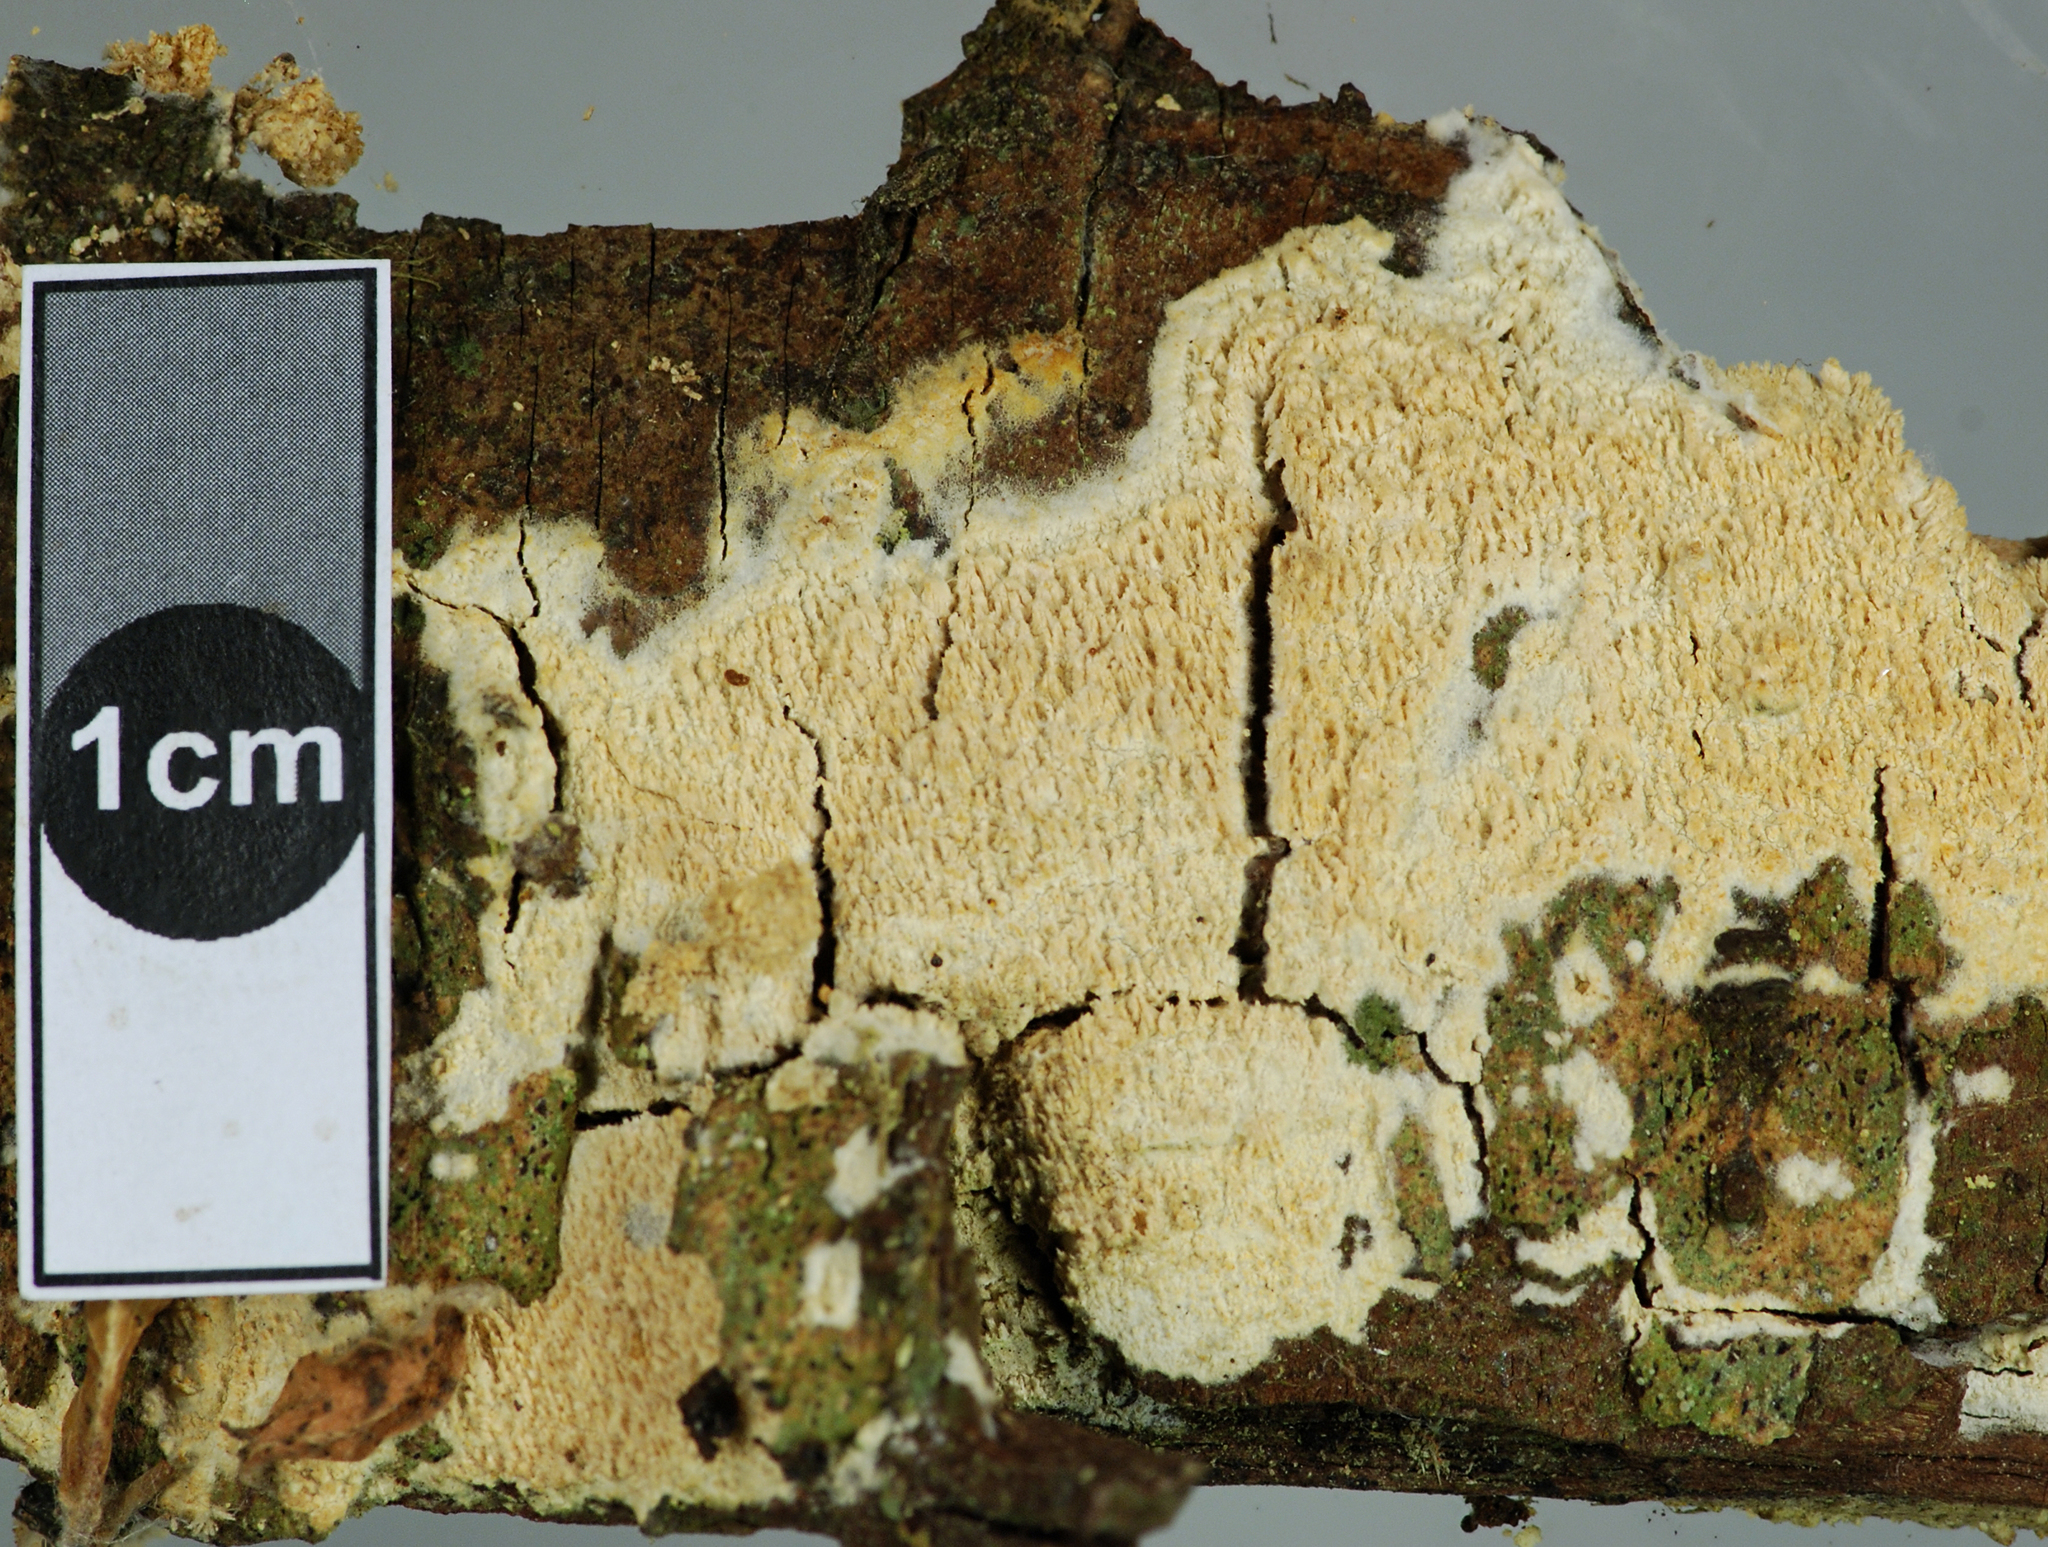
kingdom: Fungi
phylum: Basidiomycota
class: Agaricomycetes
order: Hymenochaetales
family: Hyphodontiaceae
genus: Hyphodontia
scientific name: Hyphodontia barba-jovis
